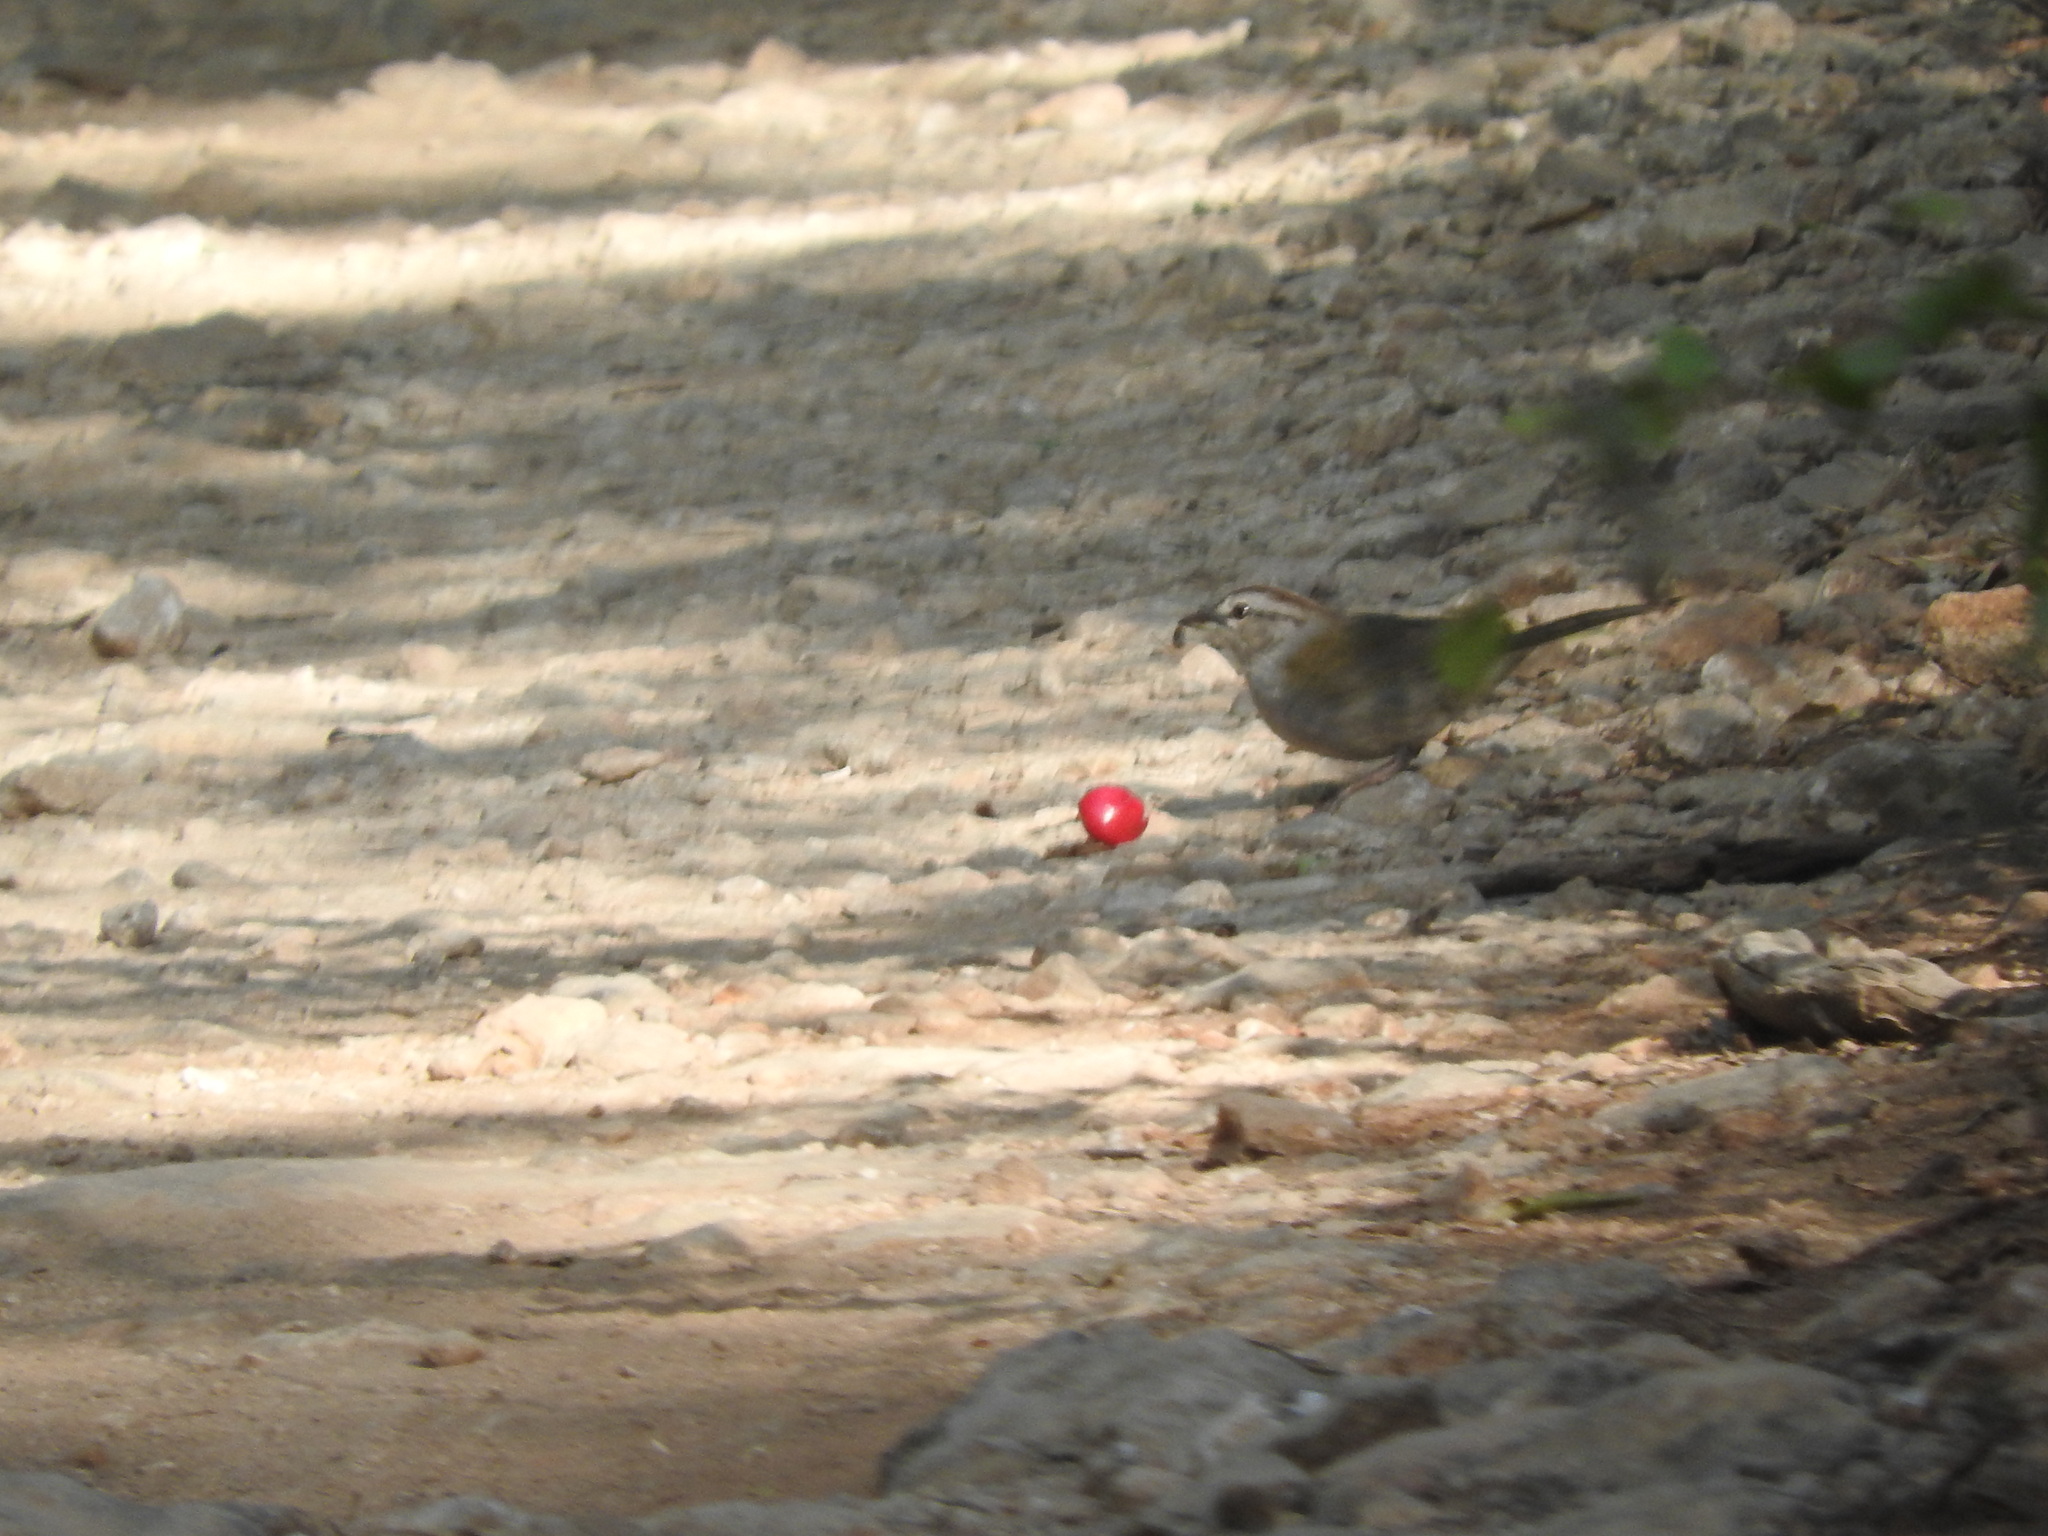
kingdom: Animalia
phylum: Chordata
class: Aves
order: Passeriformes
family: Passerellidae
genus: Arremonops
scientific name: Arremonops rufivirgatus
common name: Olive sparrow
